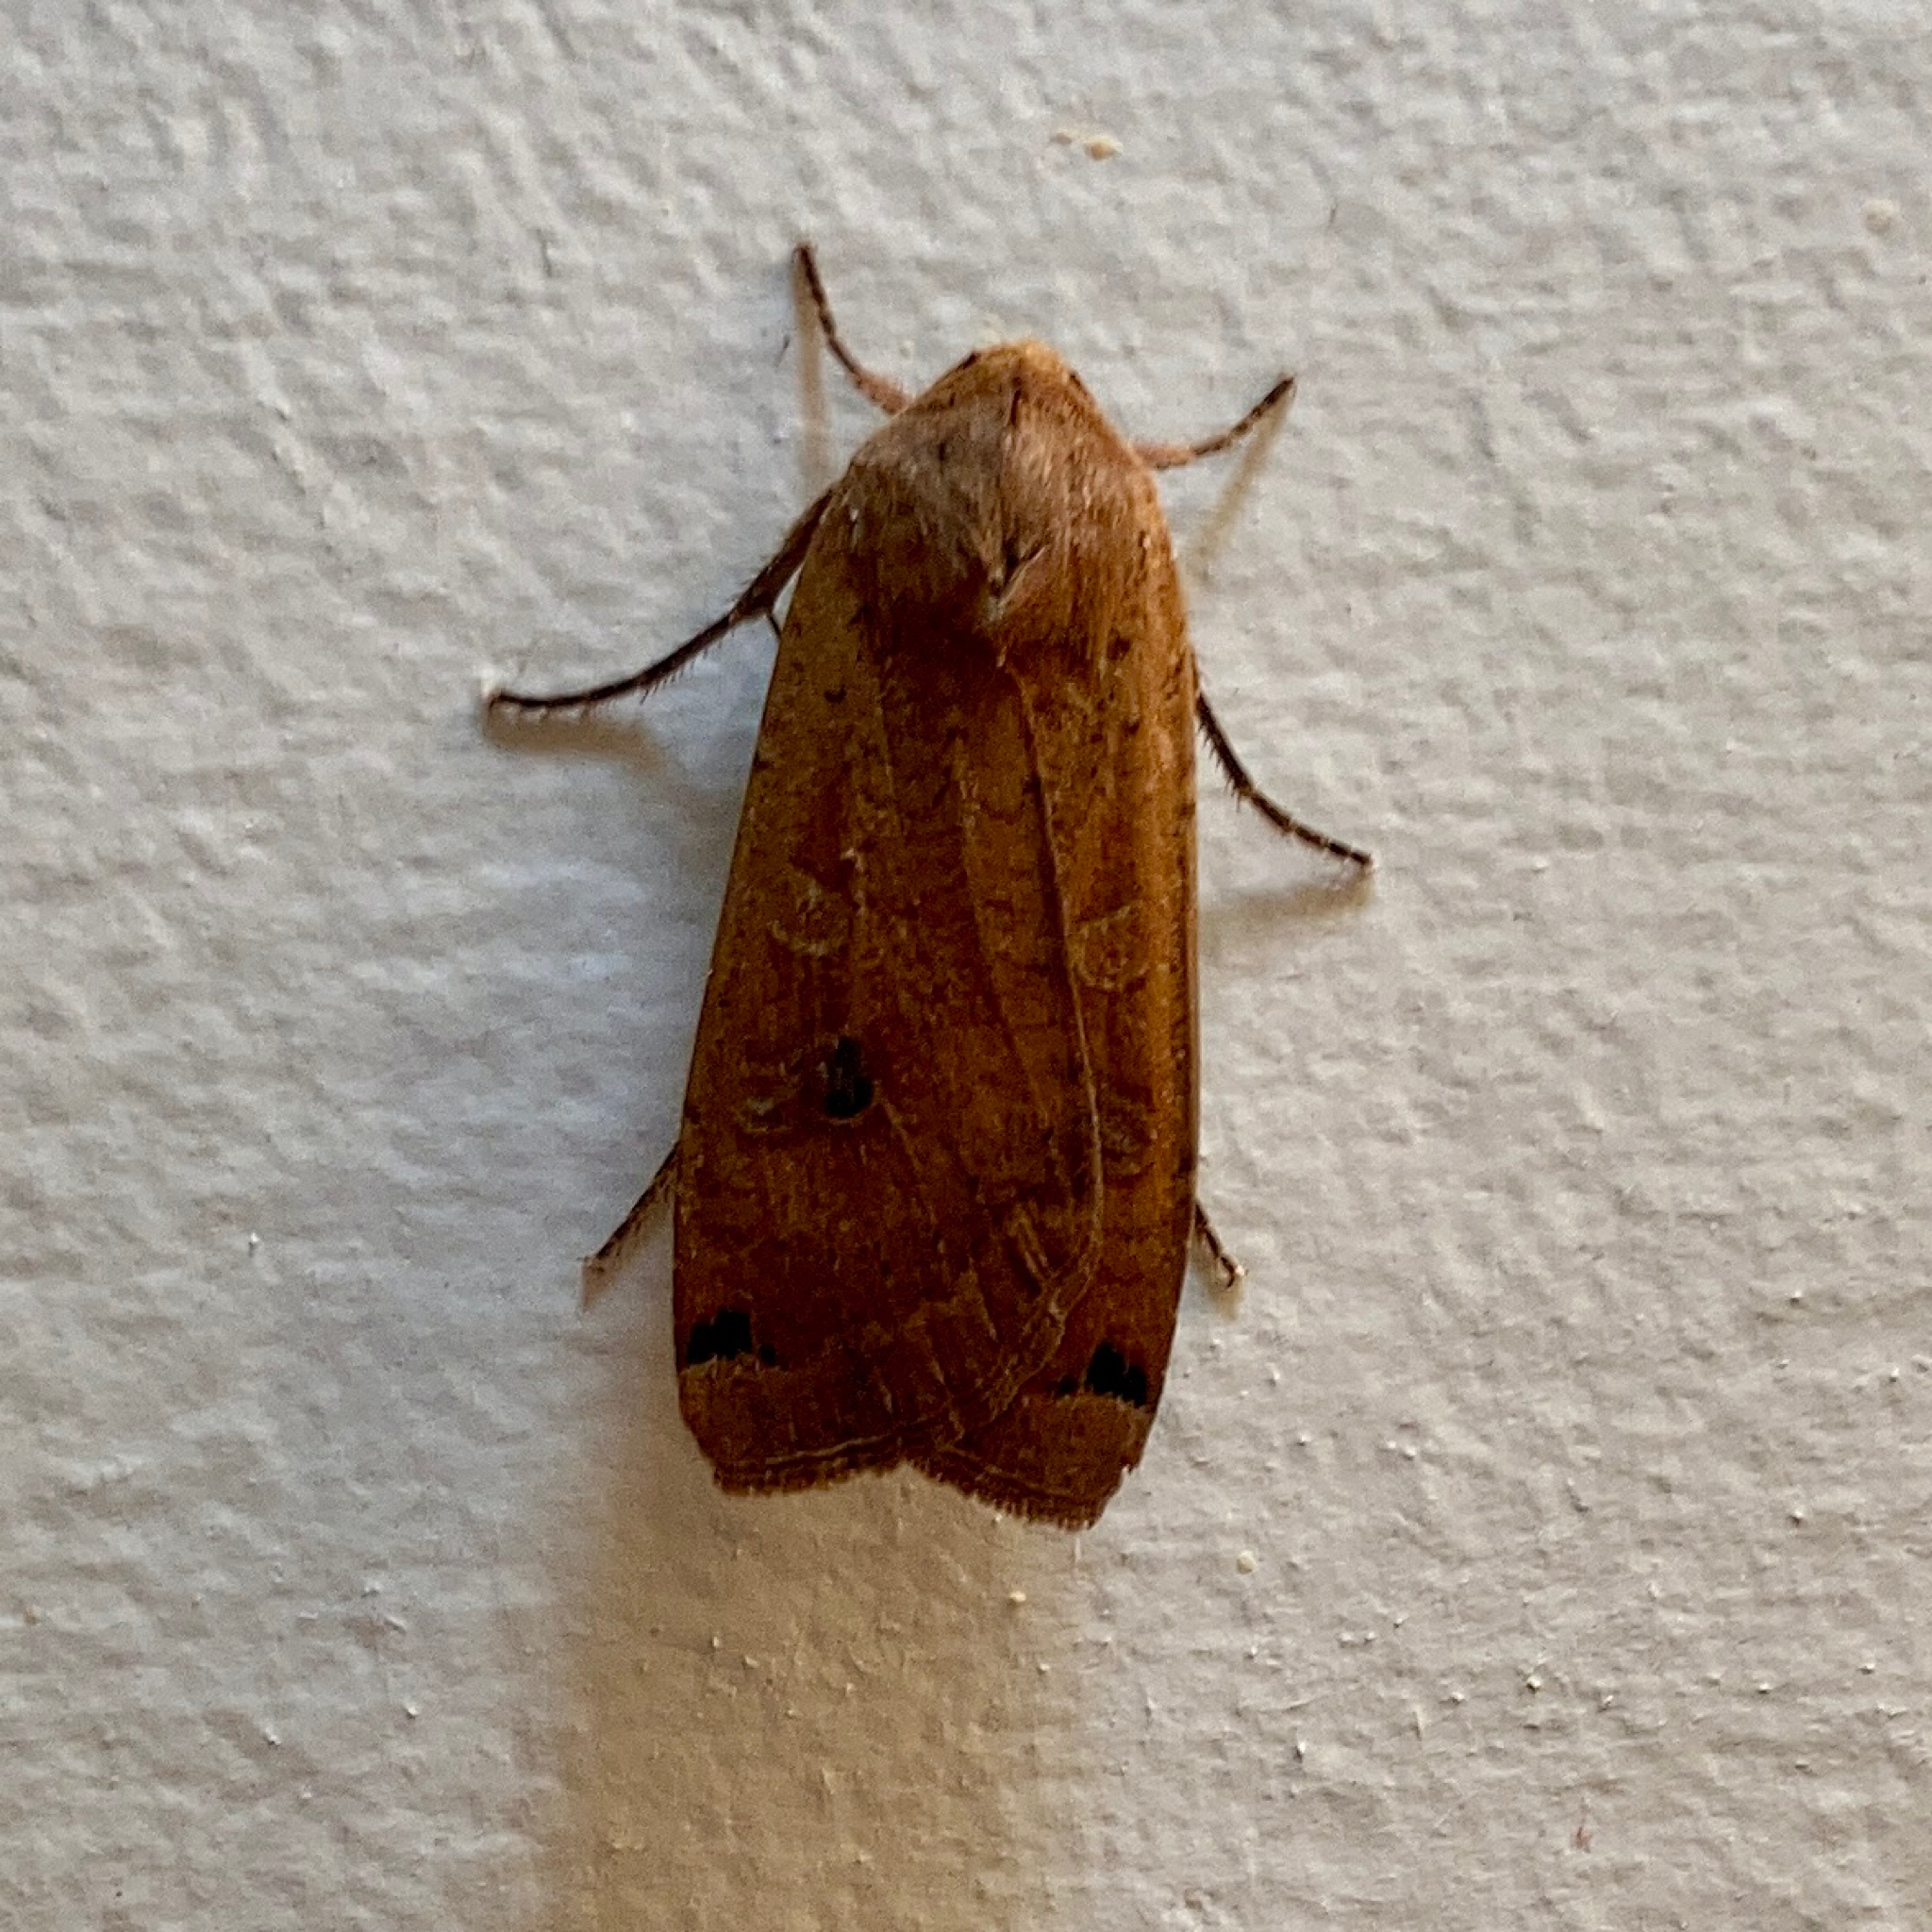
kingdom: Animalia
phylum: Arthropoda
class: Insecta
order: Lepidoptera
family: Noctuidae
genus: Noctua
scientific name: Noctua pronuba
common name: Large yellow underwing
